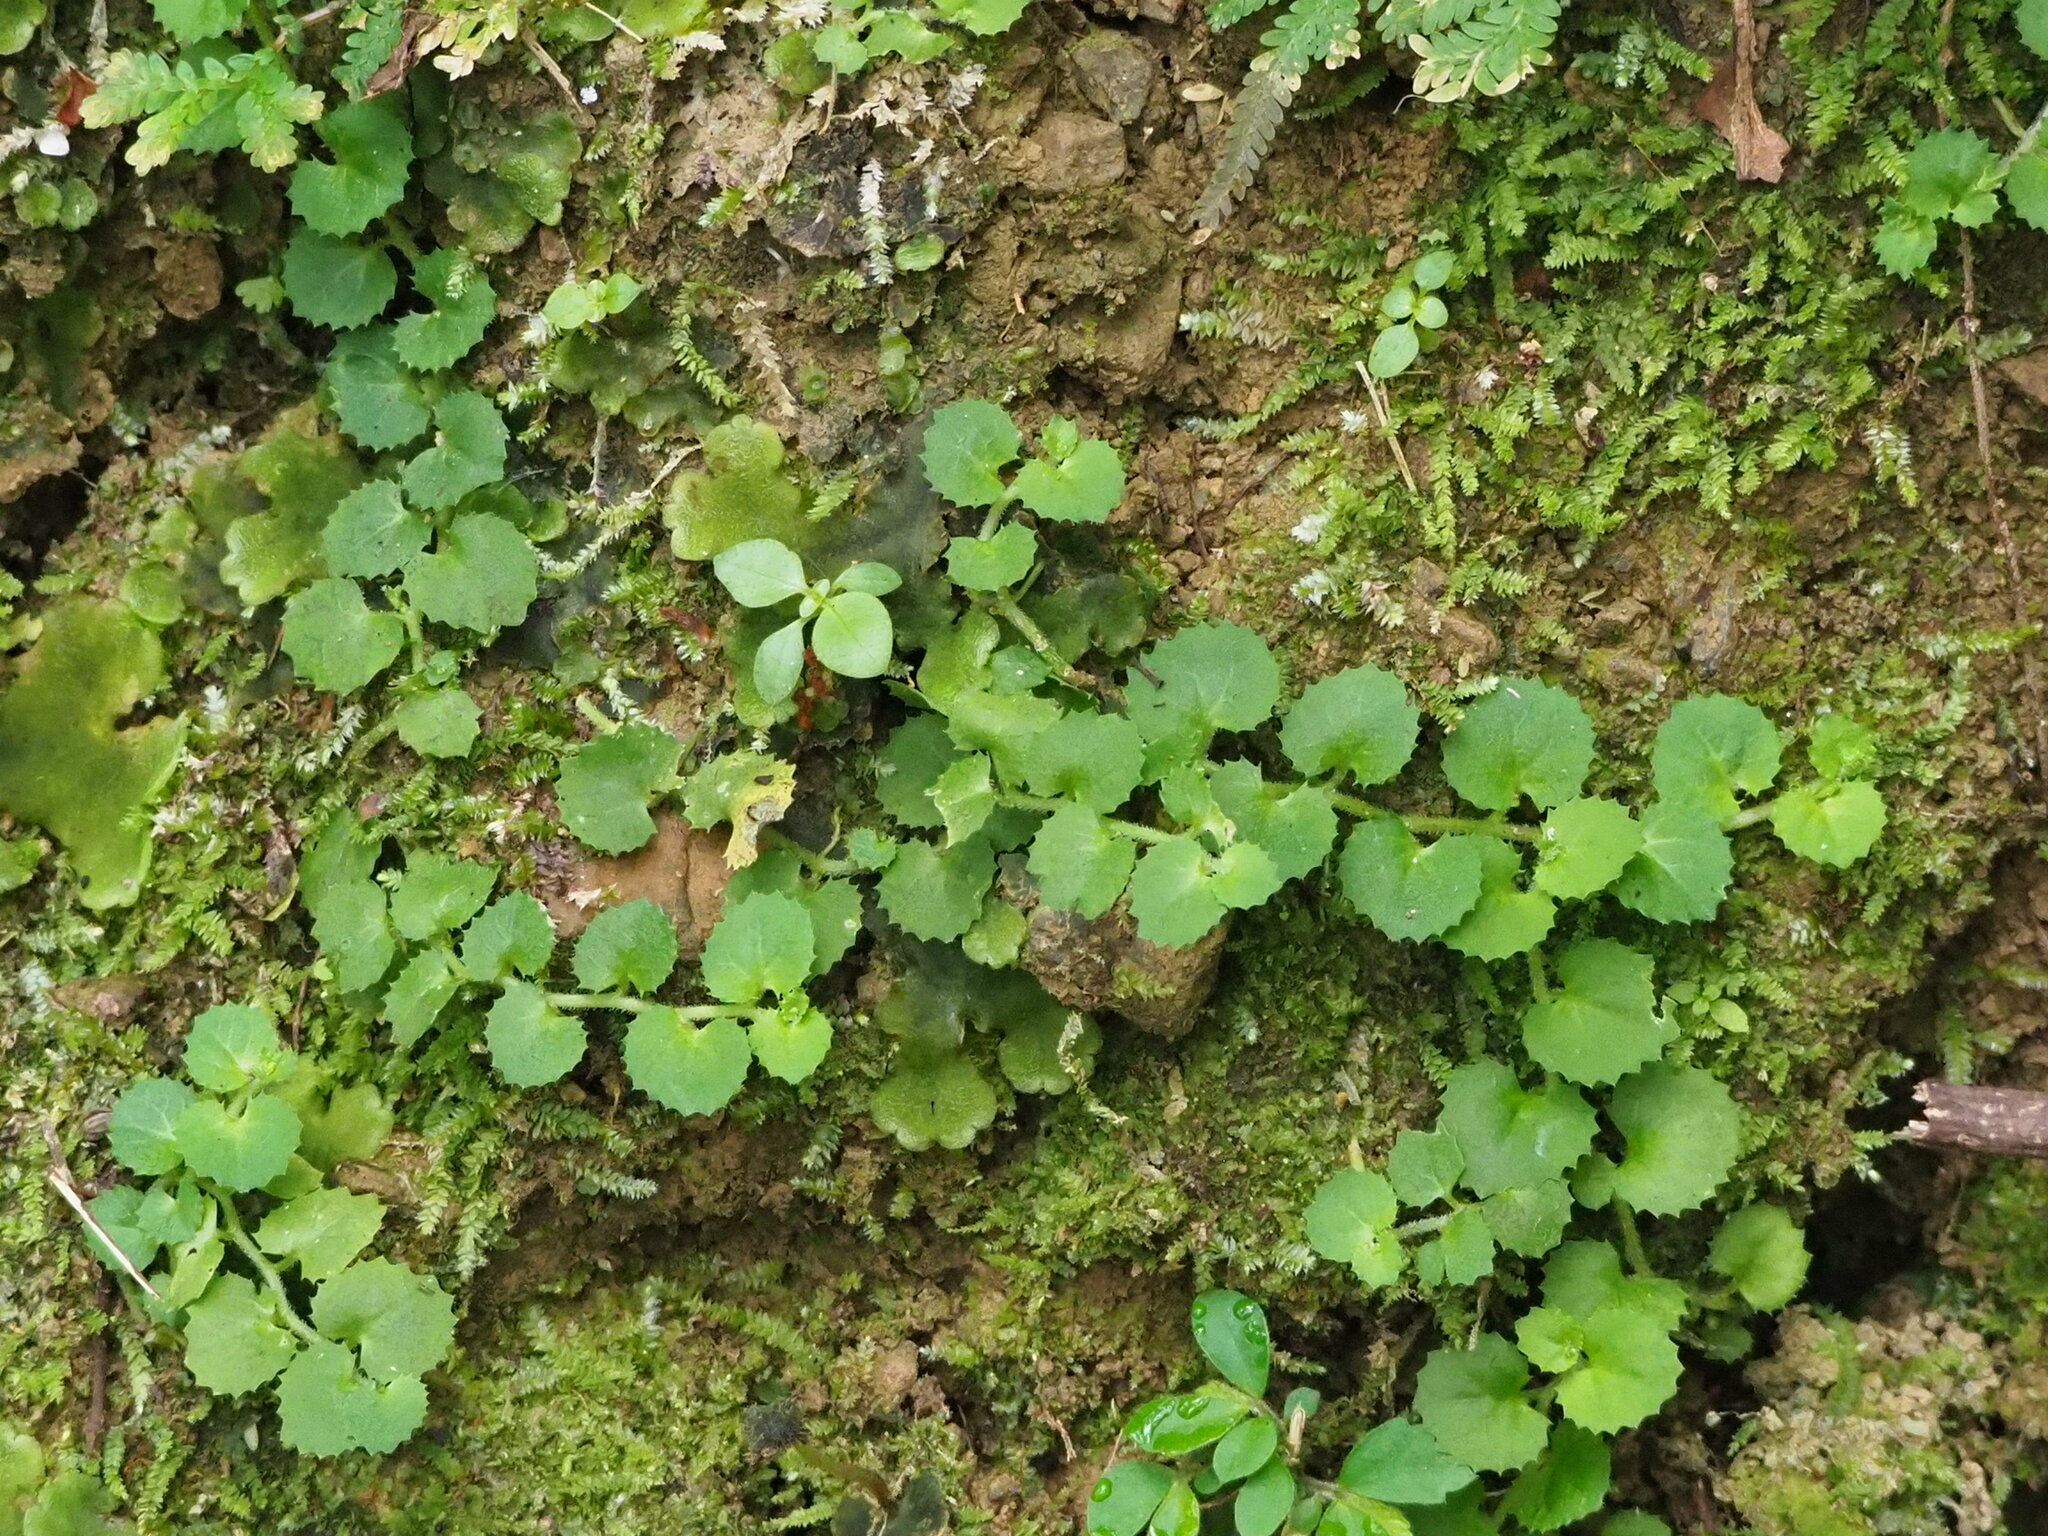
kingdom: Plantae
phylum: Tracheophyta
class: Magnoliopsida
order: Asterales
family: Campanulaceae
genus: Lobelia
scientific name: Lobelia nummularia
